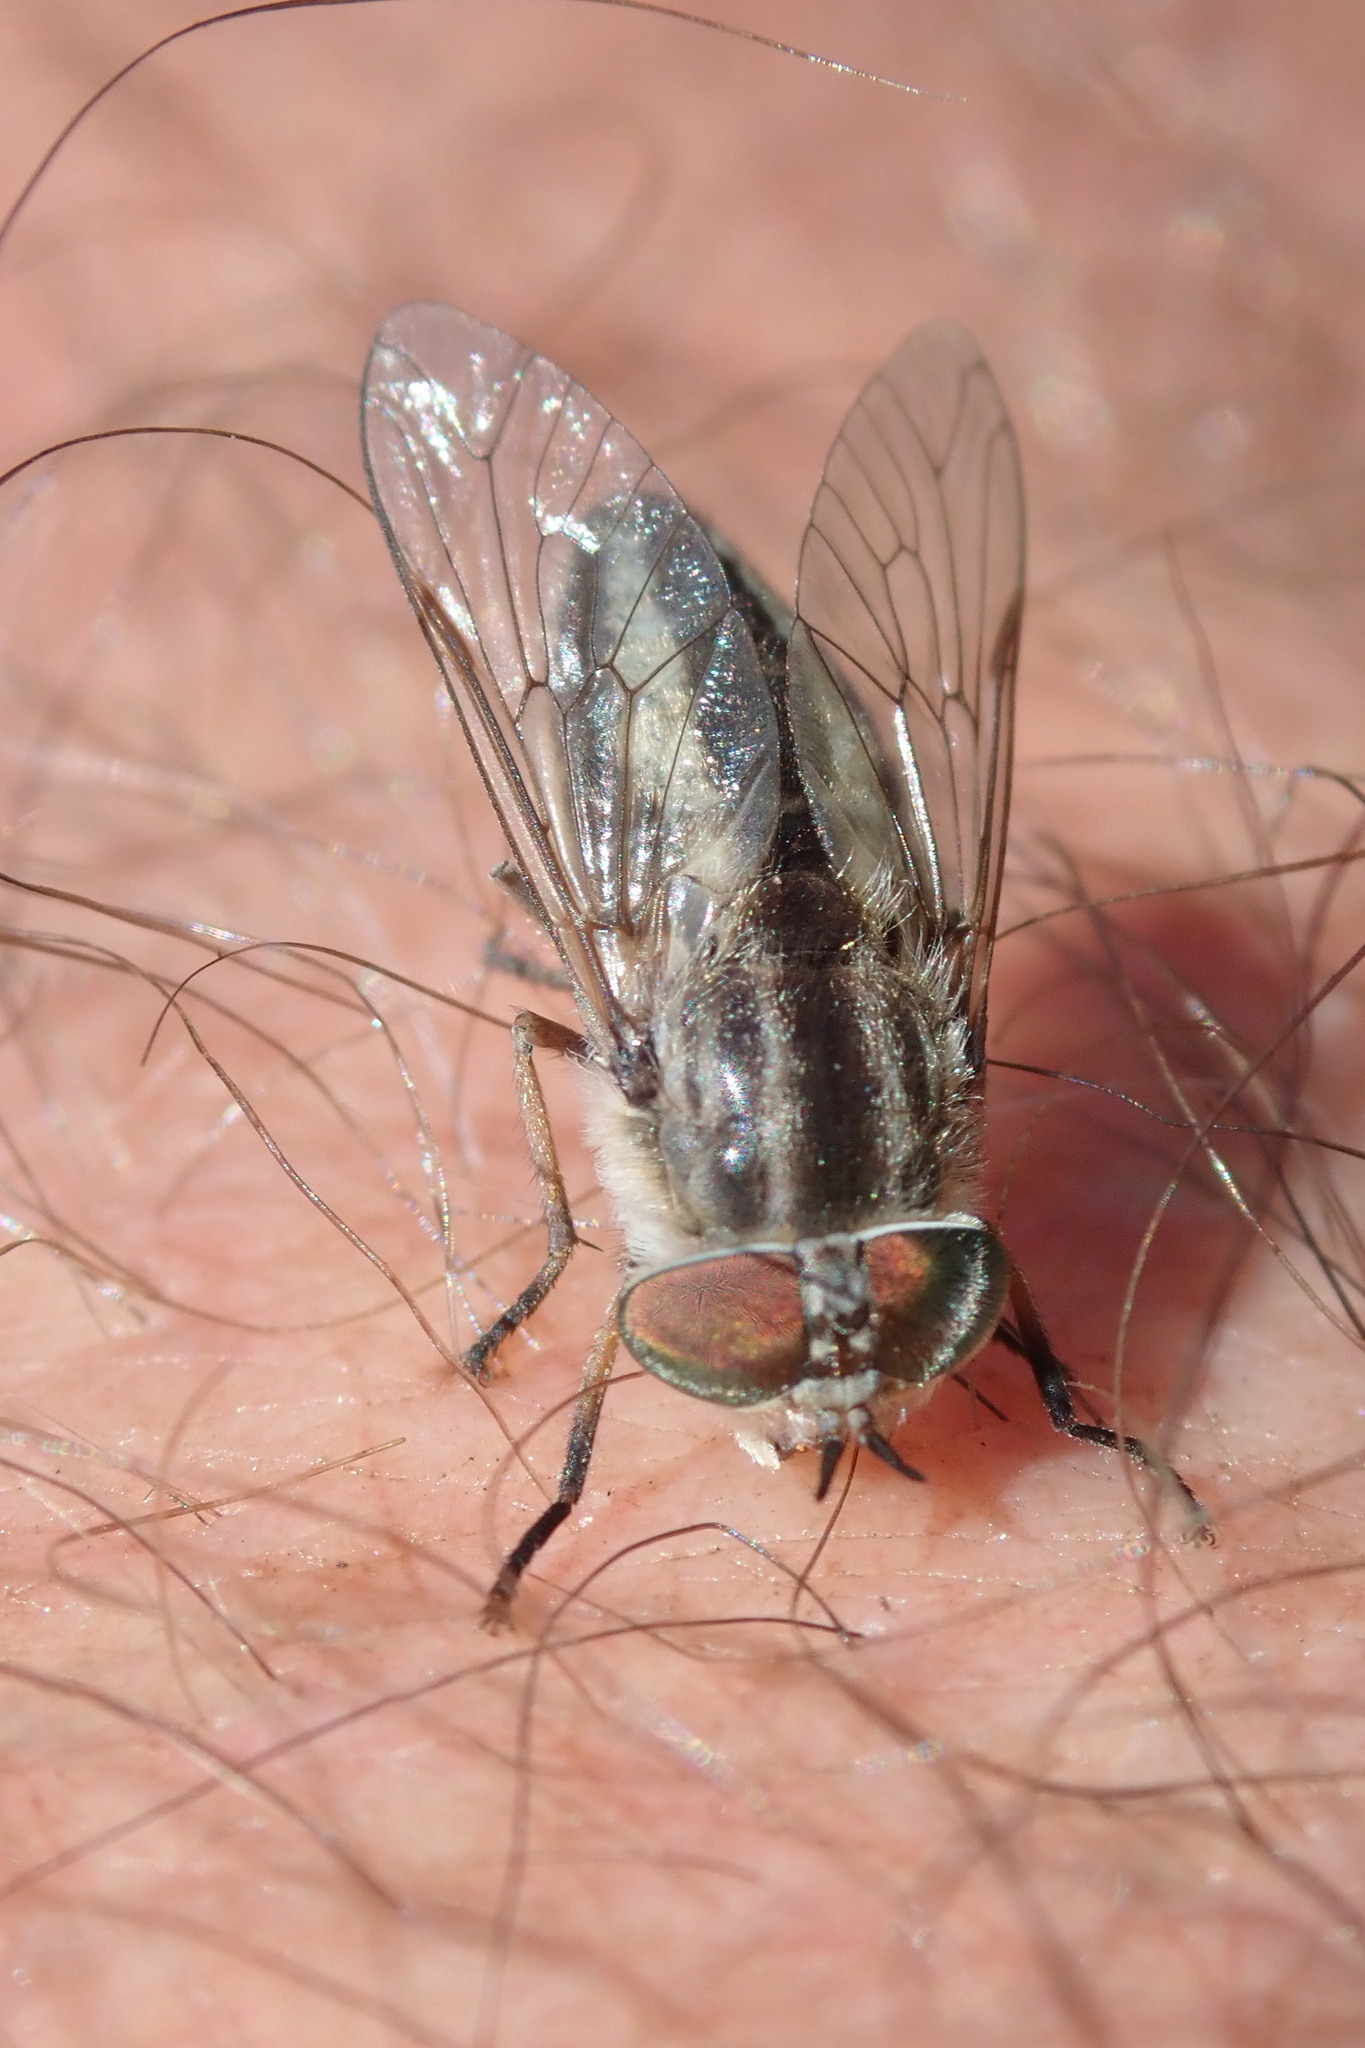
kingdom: Animalia
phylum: Arthropoda
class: Insecta
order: Diptera
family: Tabanidae
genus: Tabanus
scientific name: Tabanus taeniatus
